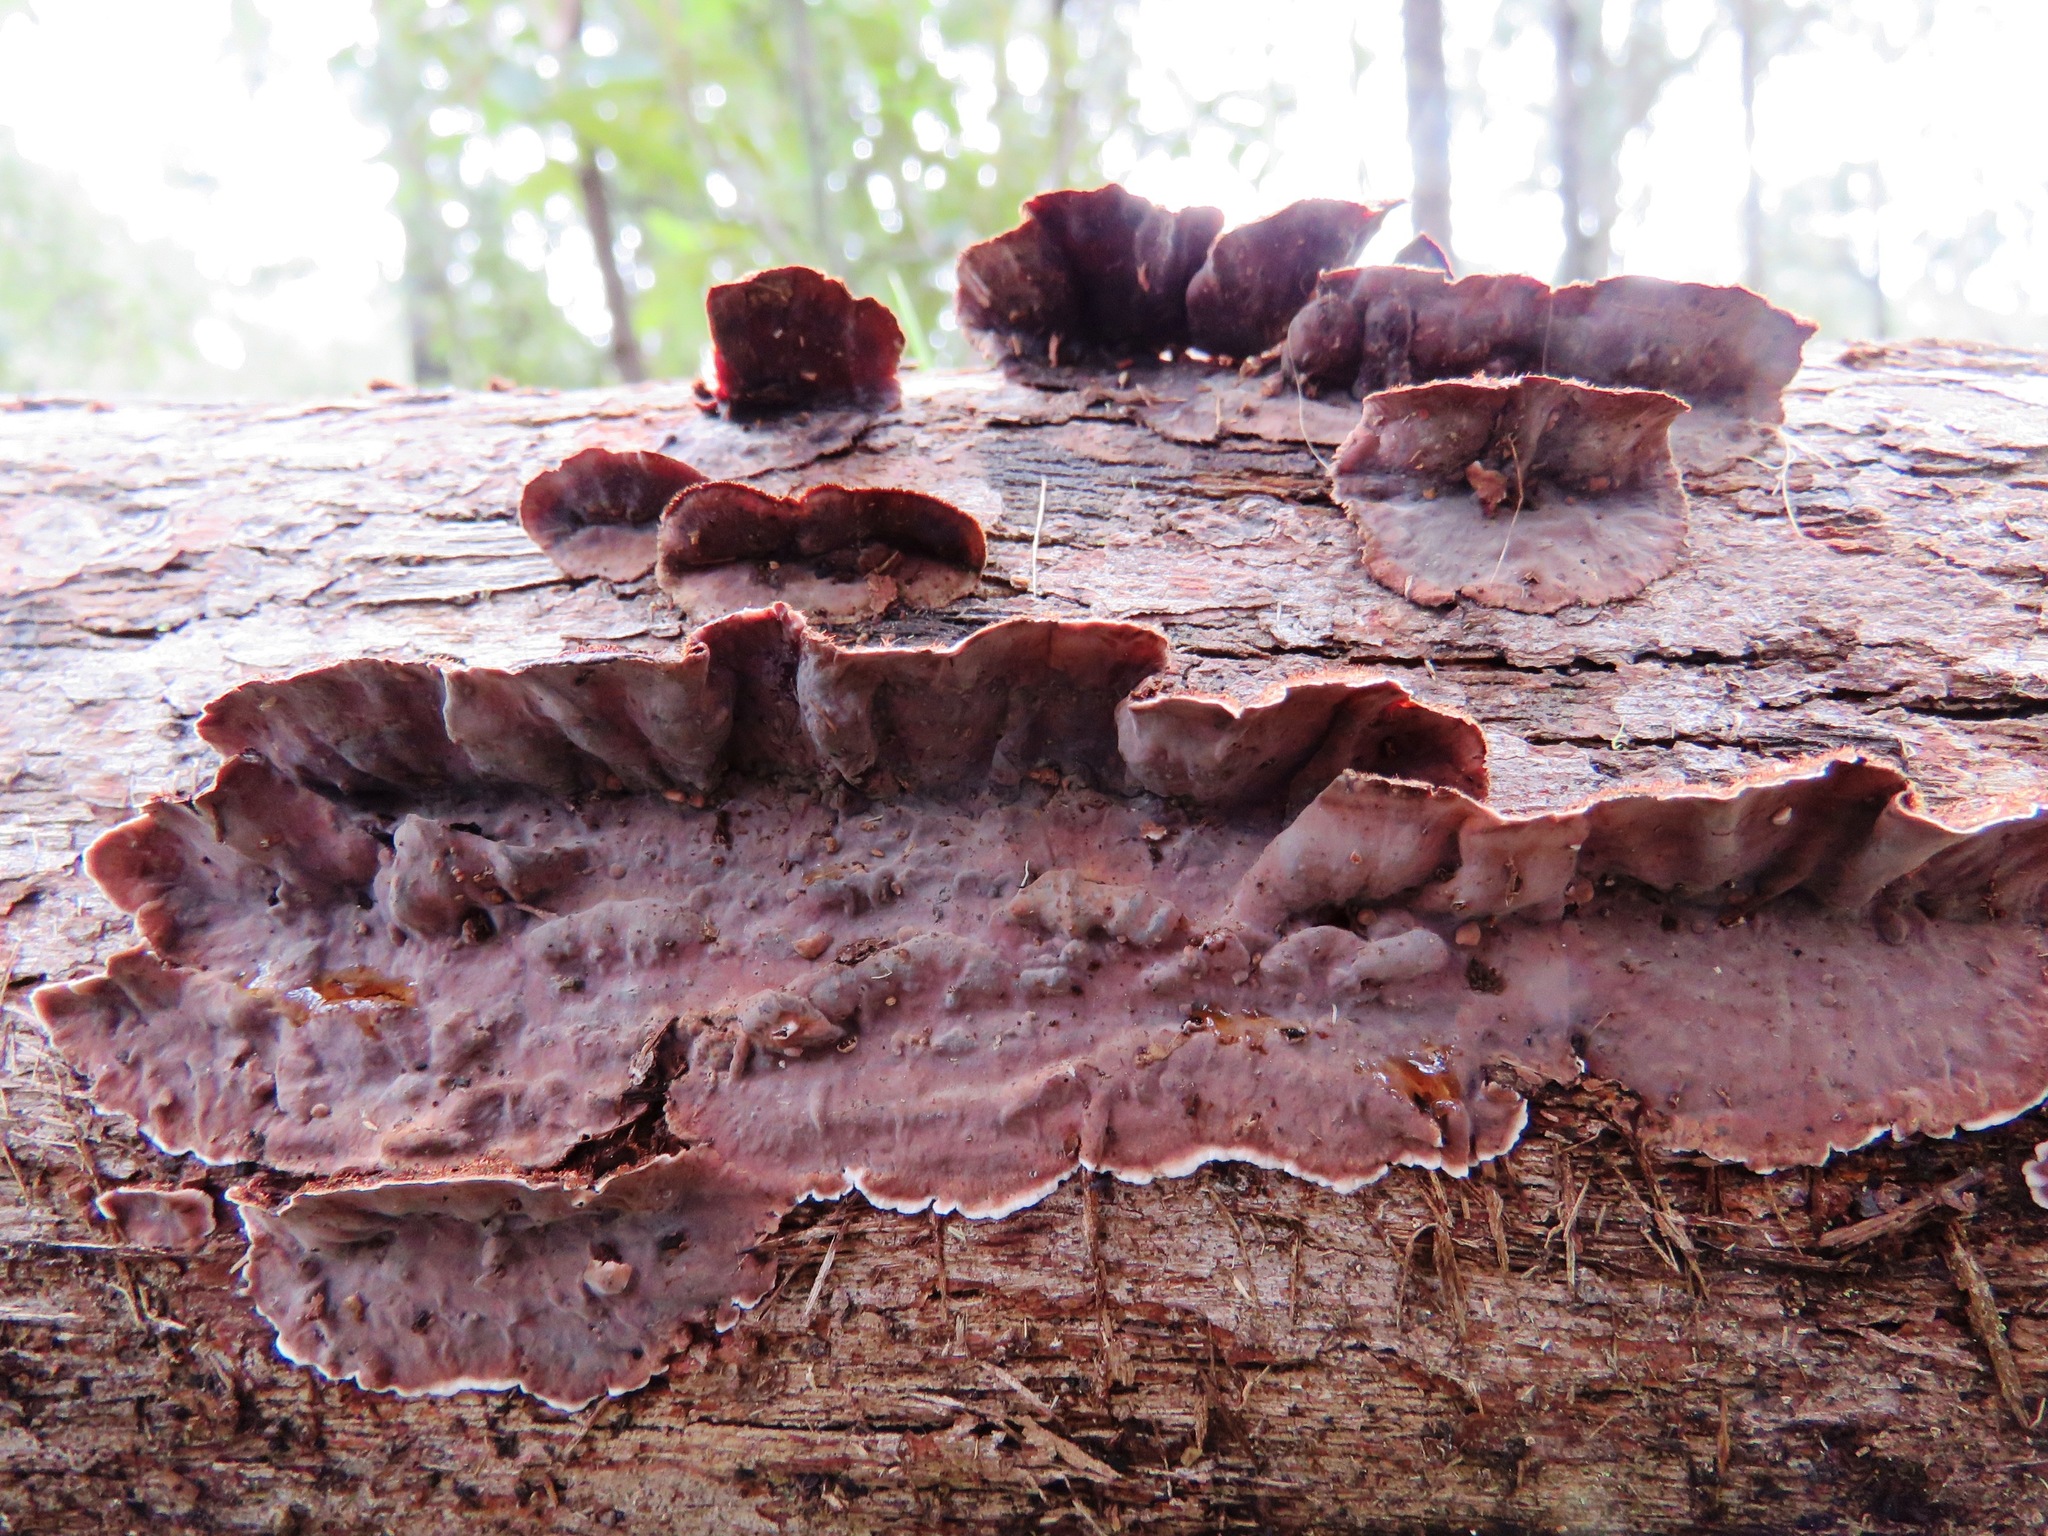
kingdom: Fungi
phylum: Basidiomycota
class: Agaricomycetes
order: Russulales
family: Stereaceae
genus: Xylobolus
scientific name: Xylobolus illudens
